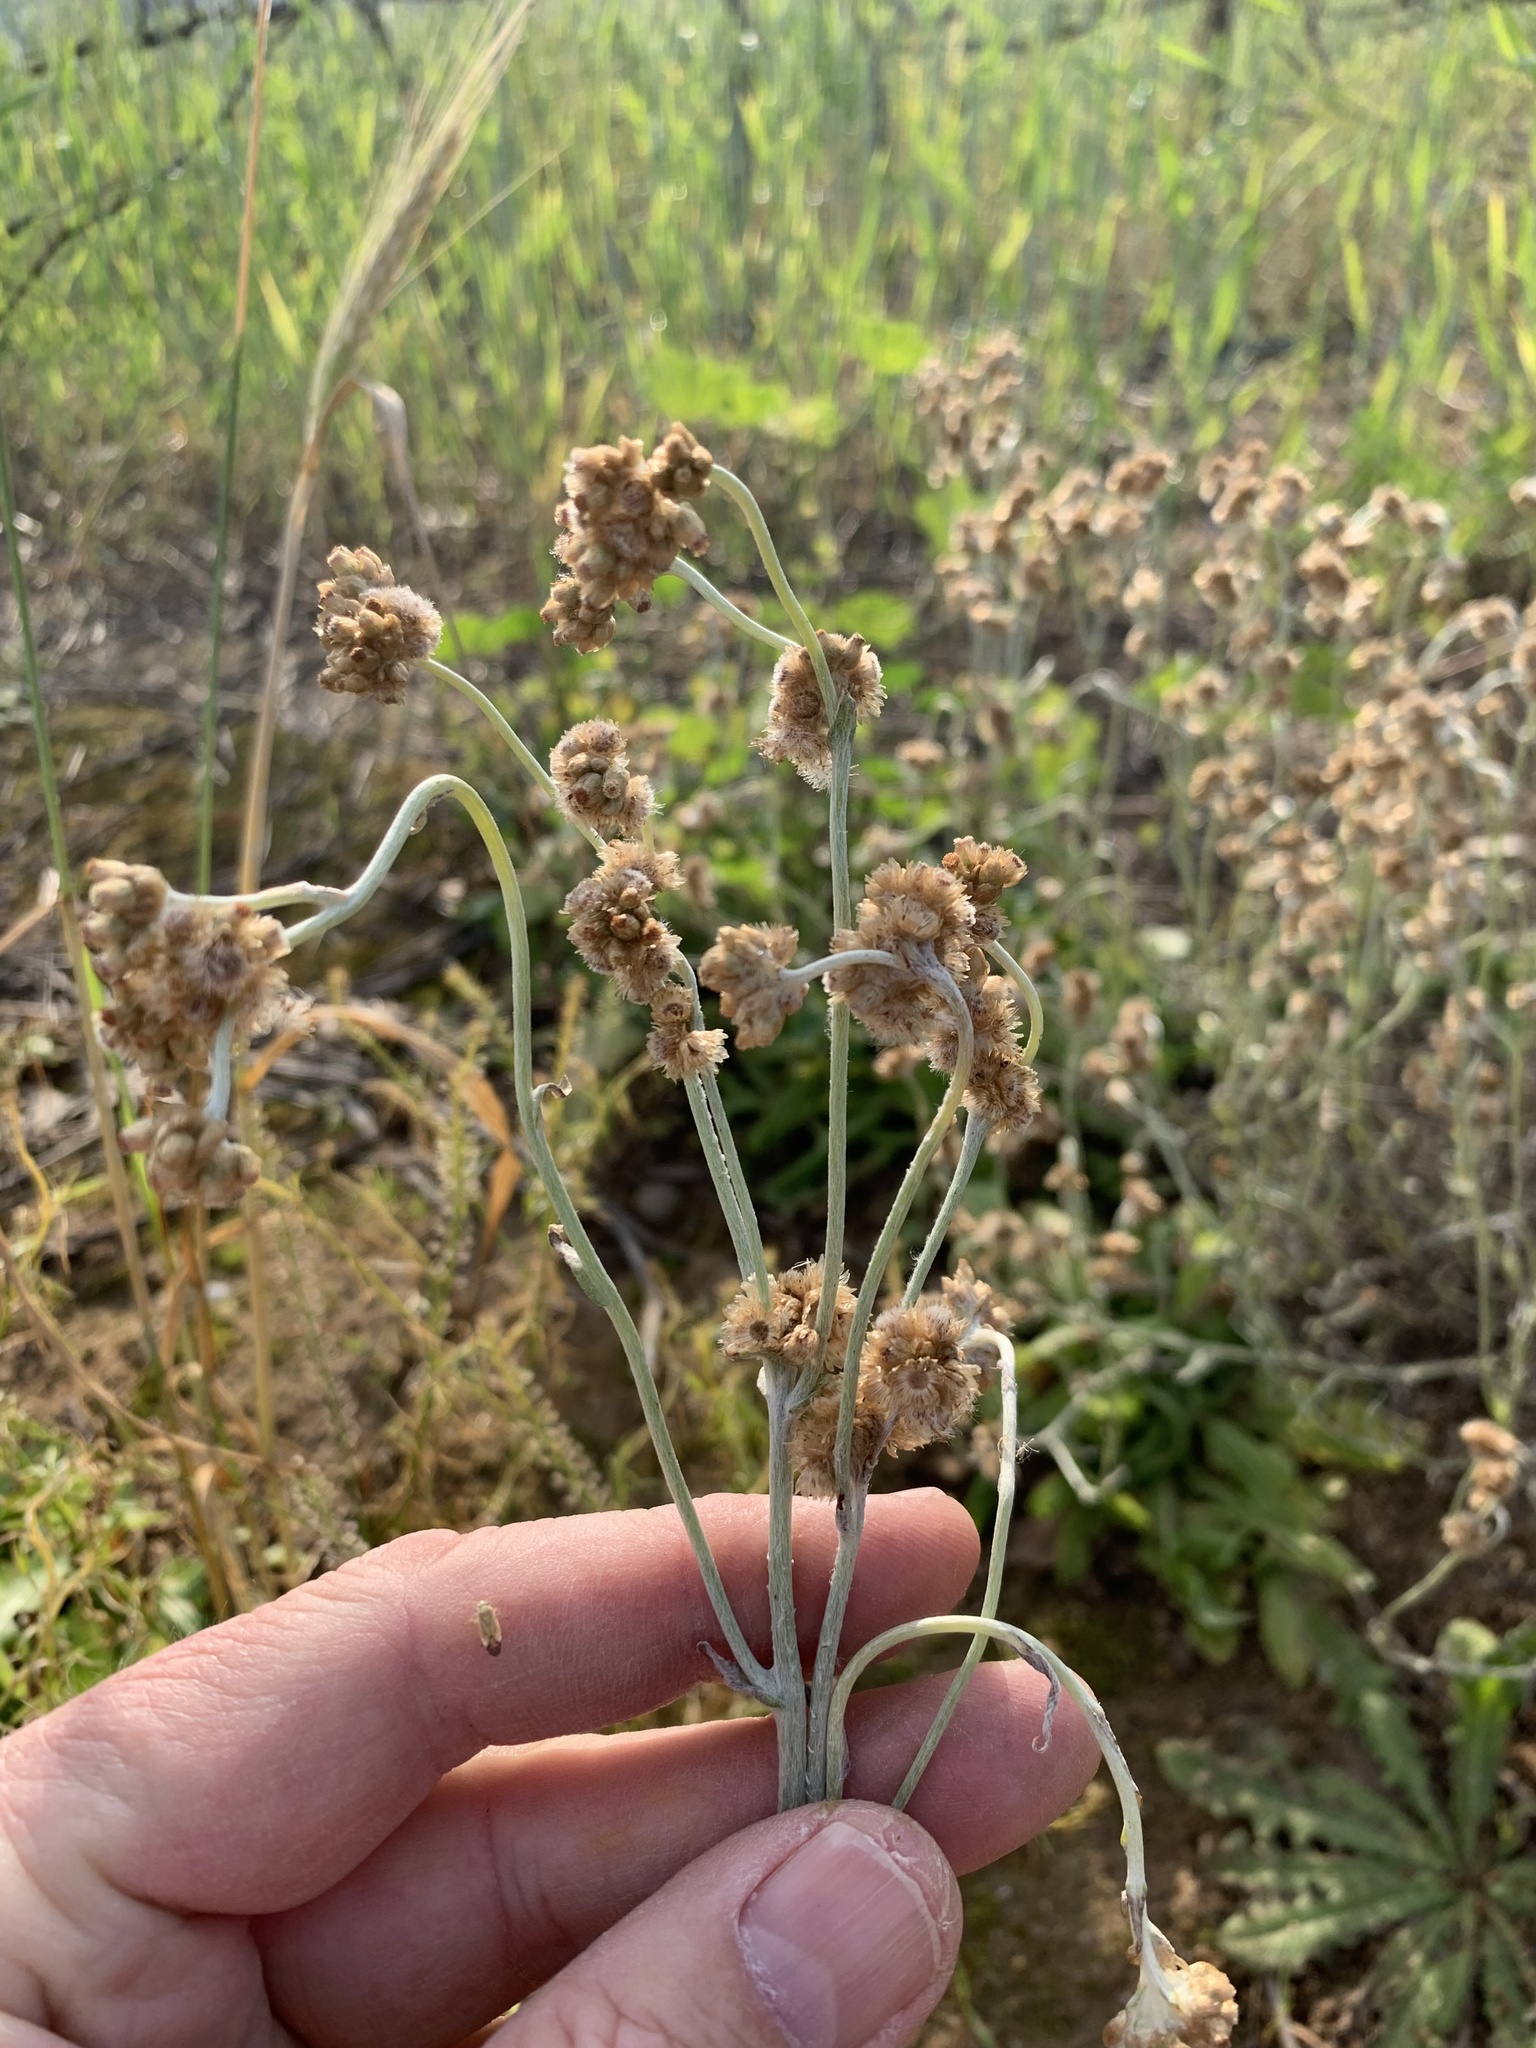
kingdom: Plantae
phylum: Tracheophyta
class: Magnoliopsida
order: Asterales
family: Asteraceae
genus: Helichrysum
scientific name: Helichrysum luteoalbum
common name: Daisy
